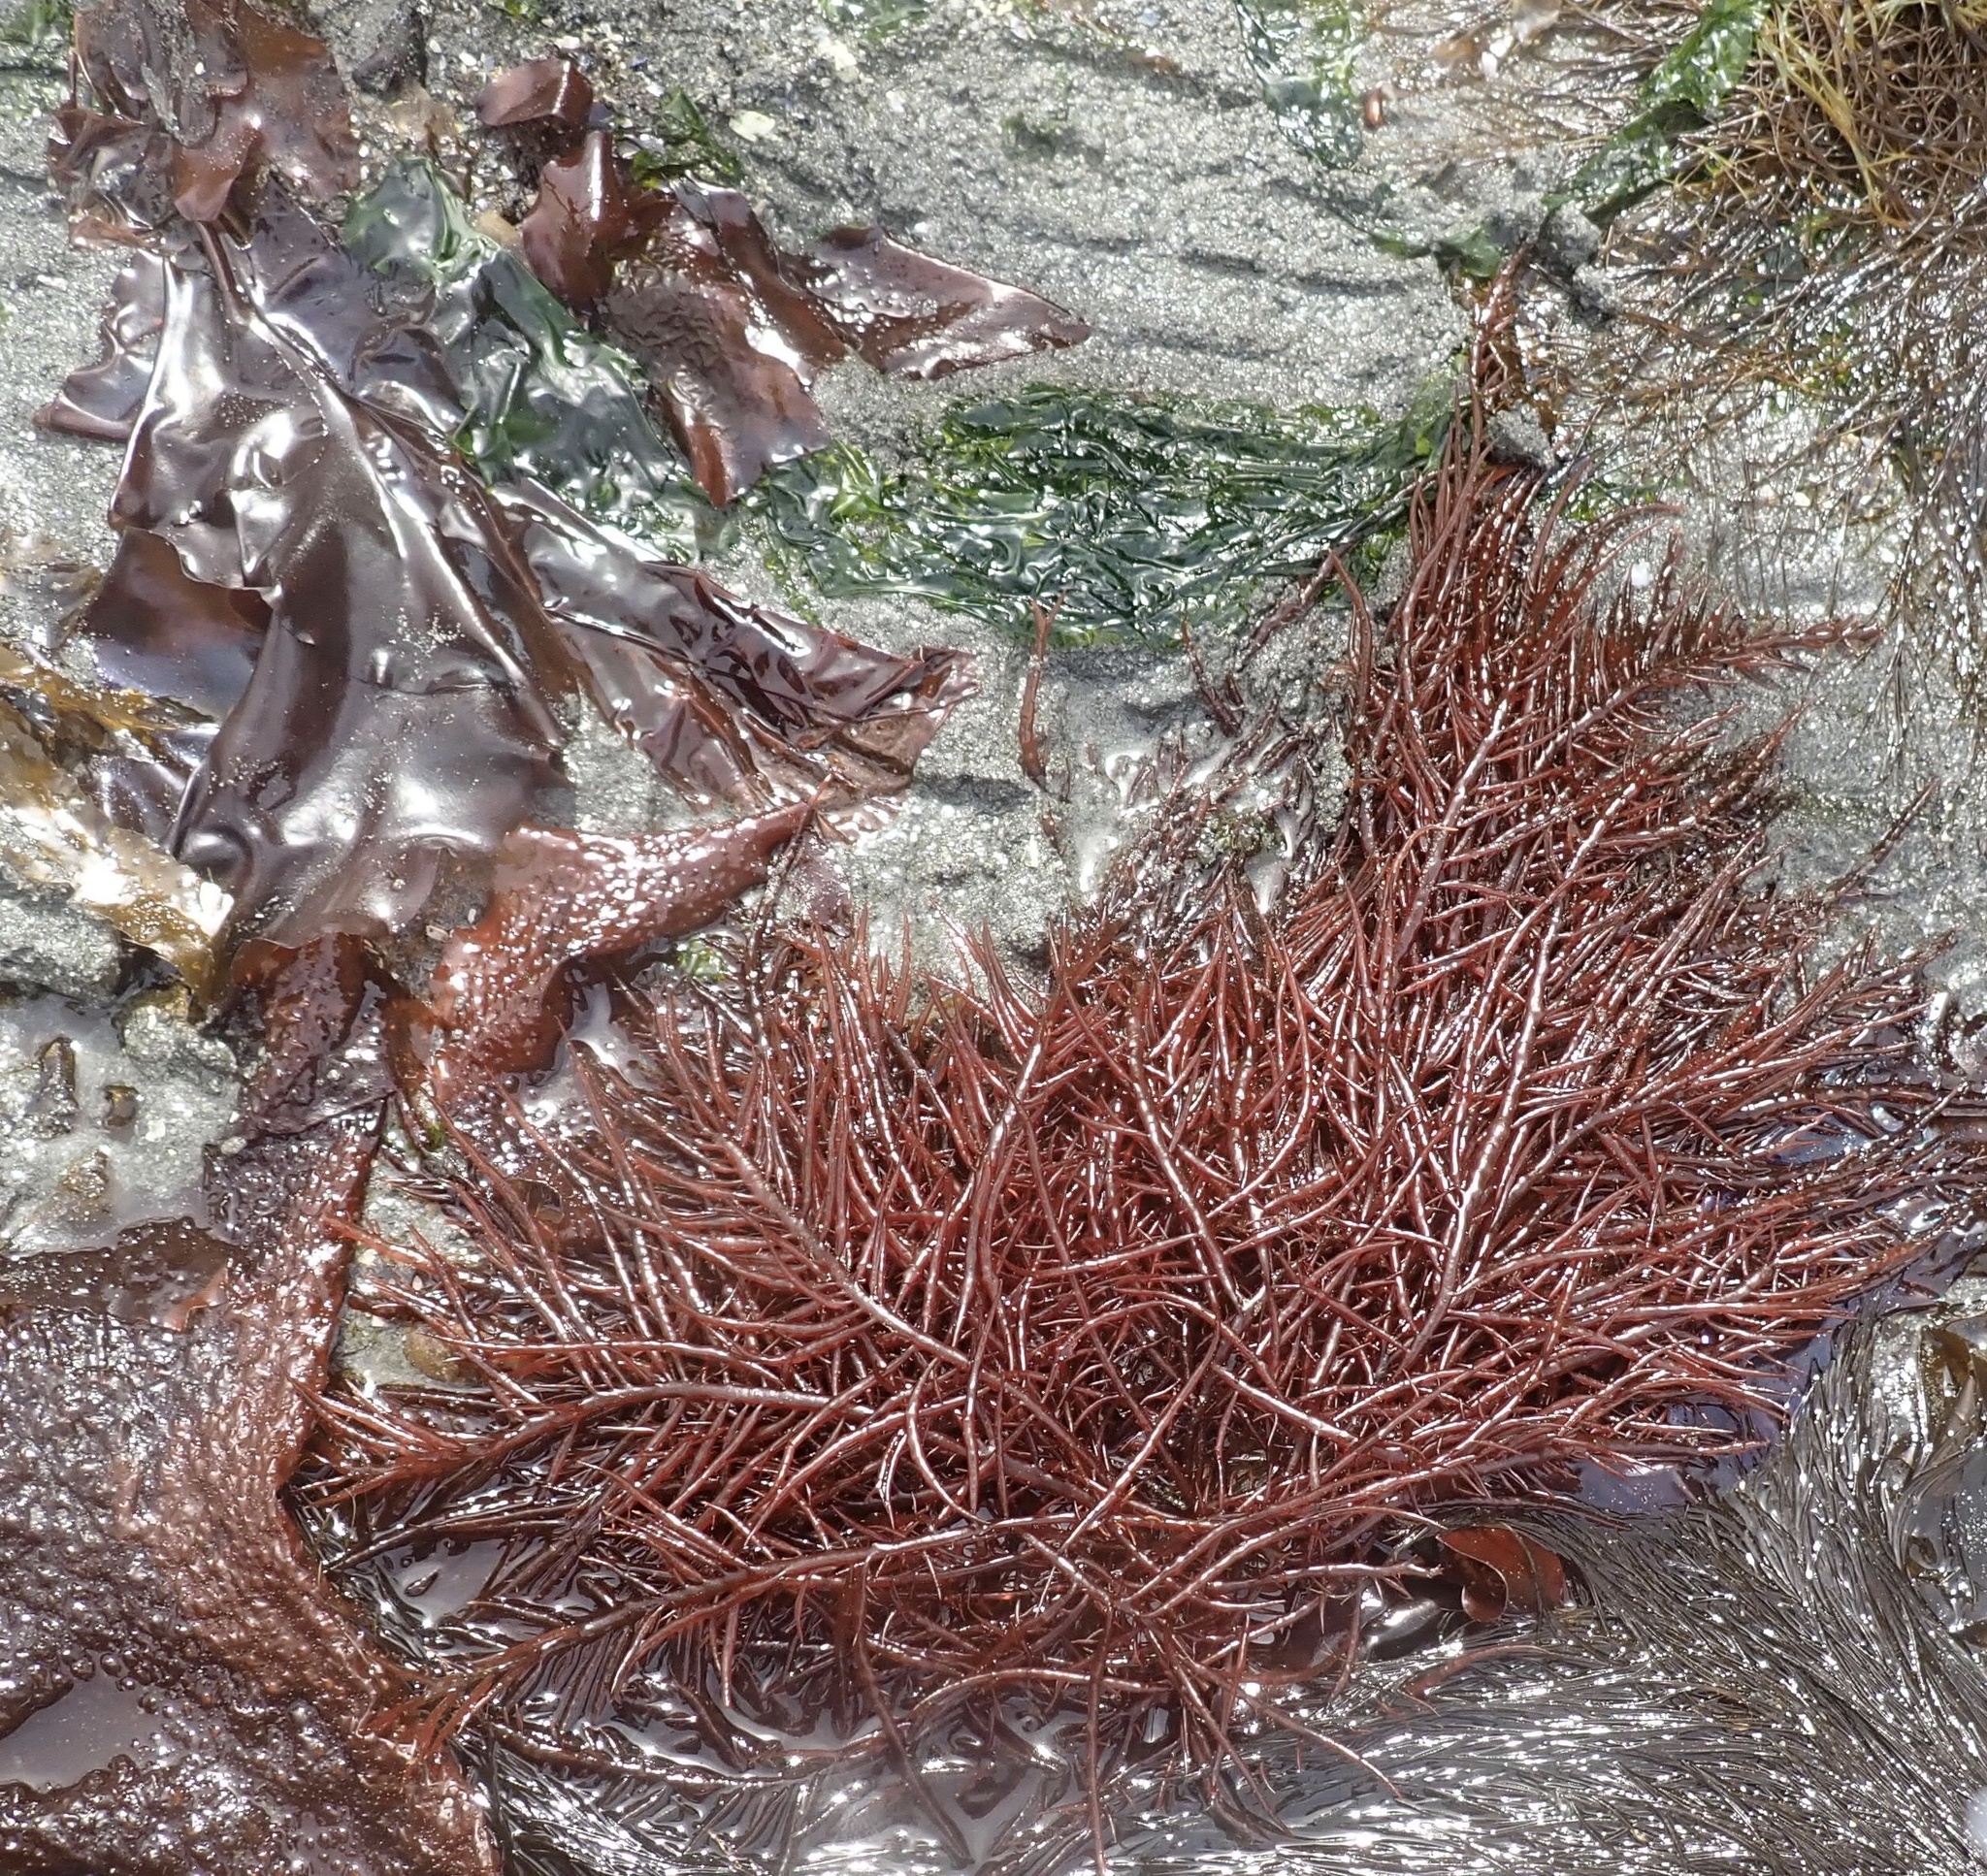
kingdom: Plantae
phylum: Rhodophyta
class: Florideophyceae
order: Gigartinales
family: Solieriaceae
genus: Sarcodiotheca
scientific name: Sarcodiotheca gaudichaudii
